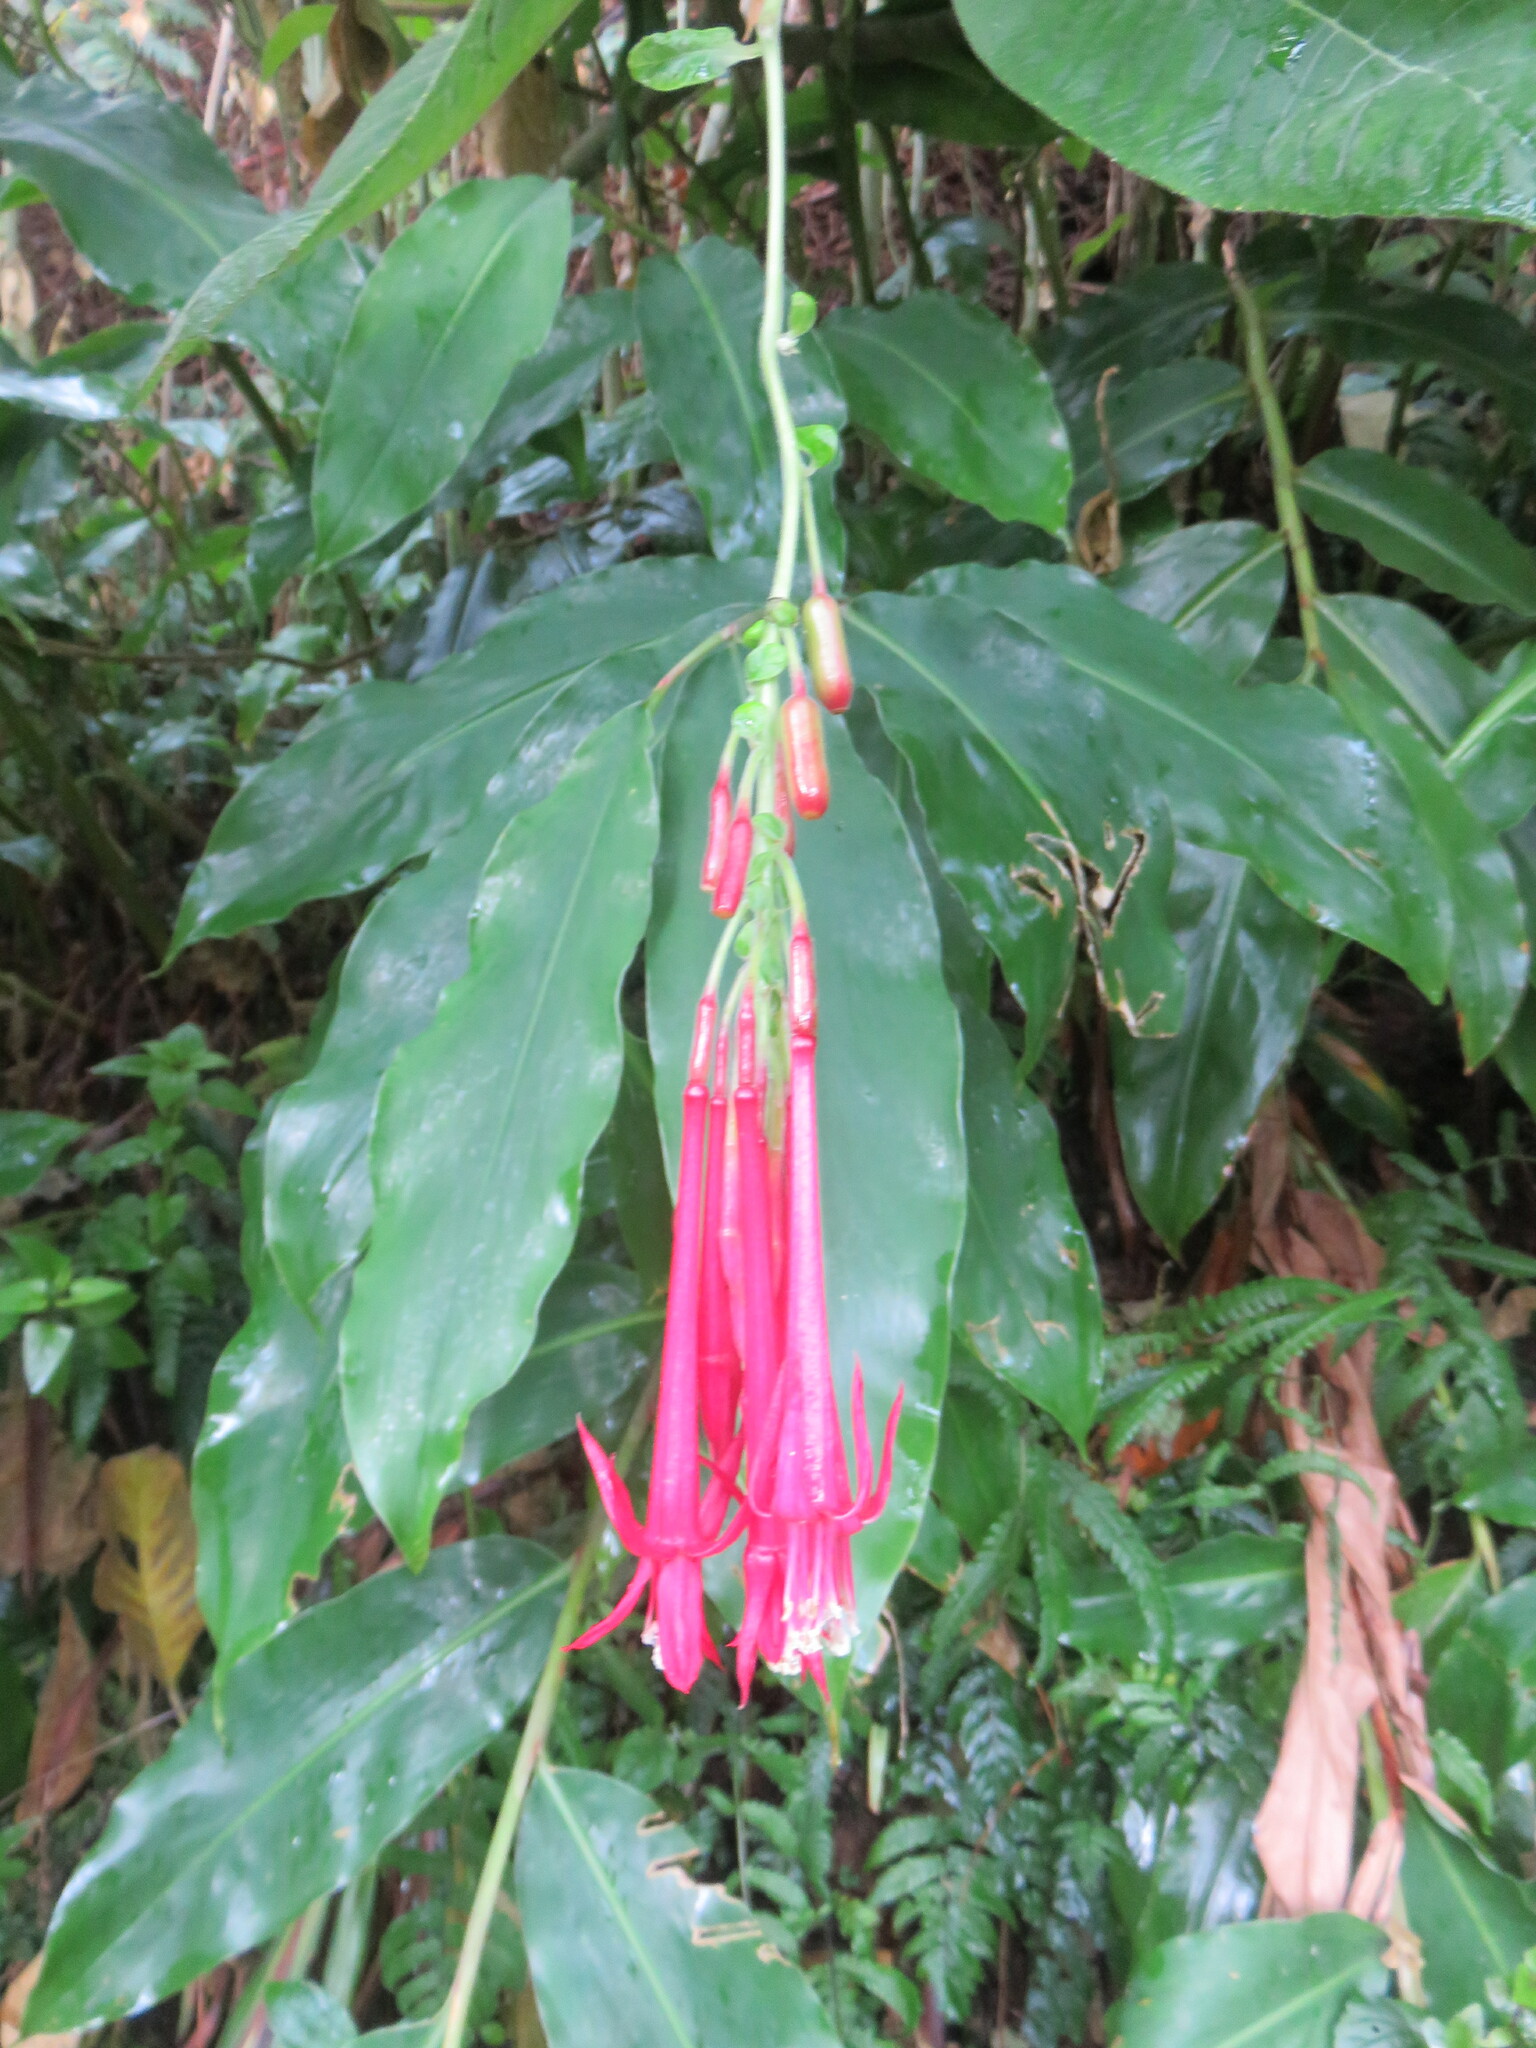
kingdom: Plantae
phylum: Tracheophyta
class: Magnoliopsida
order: Myrtales
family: Onagraceae
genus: Fuchsia
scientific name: Fuchsia boliviana
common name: Bolivian fuchsia
